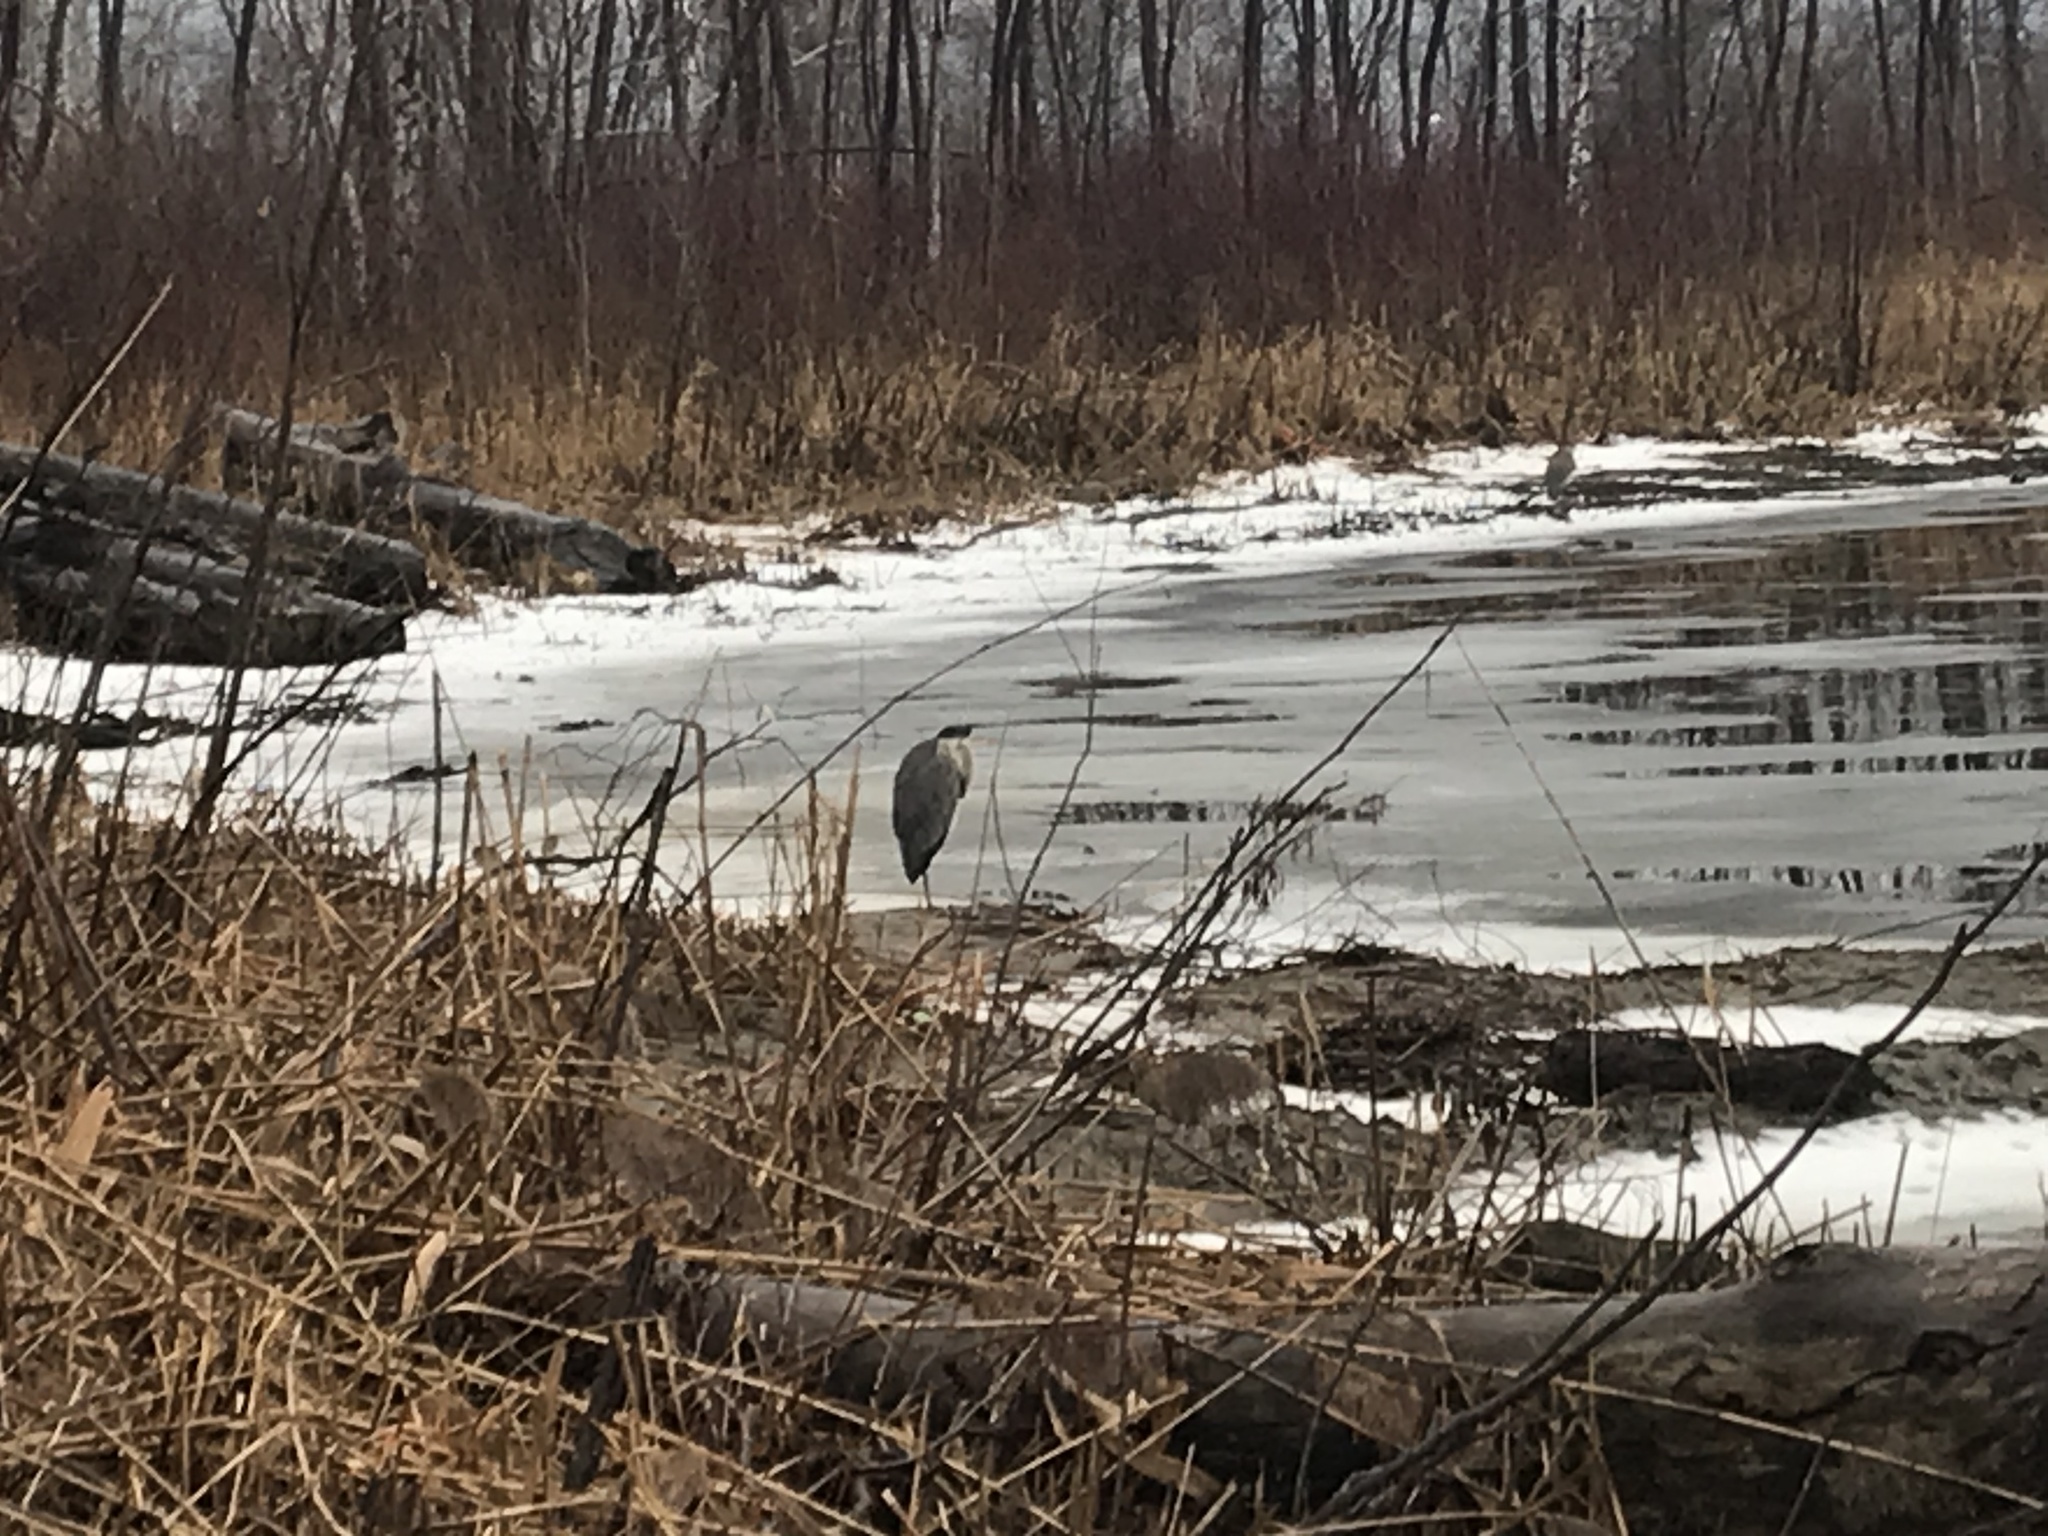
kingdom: Animalia
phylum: Chordata
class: Aves
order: Pelecaniformes
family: Ardeidae
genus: Ardea
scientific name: Ardea herodias
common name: Great blue heron
